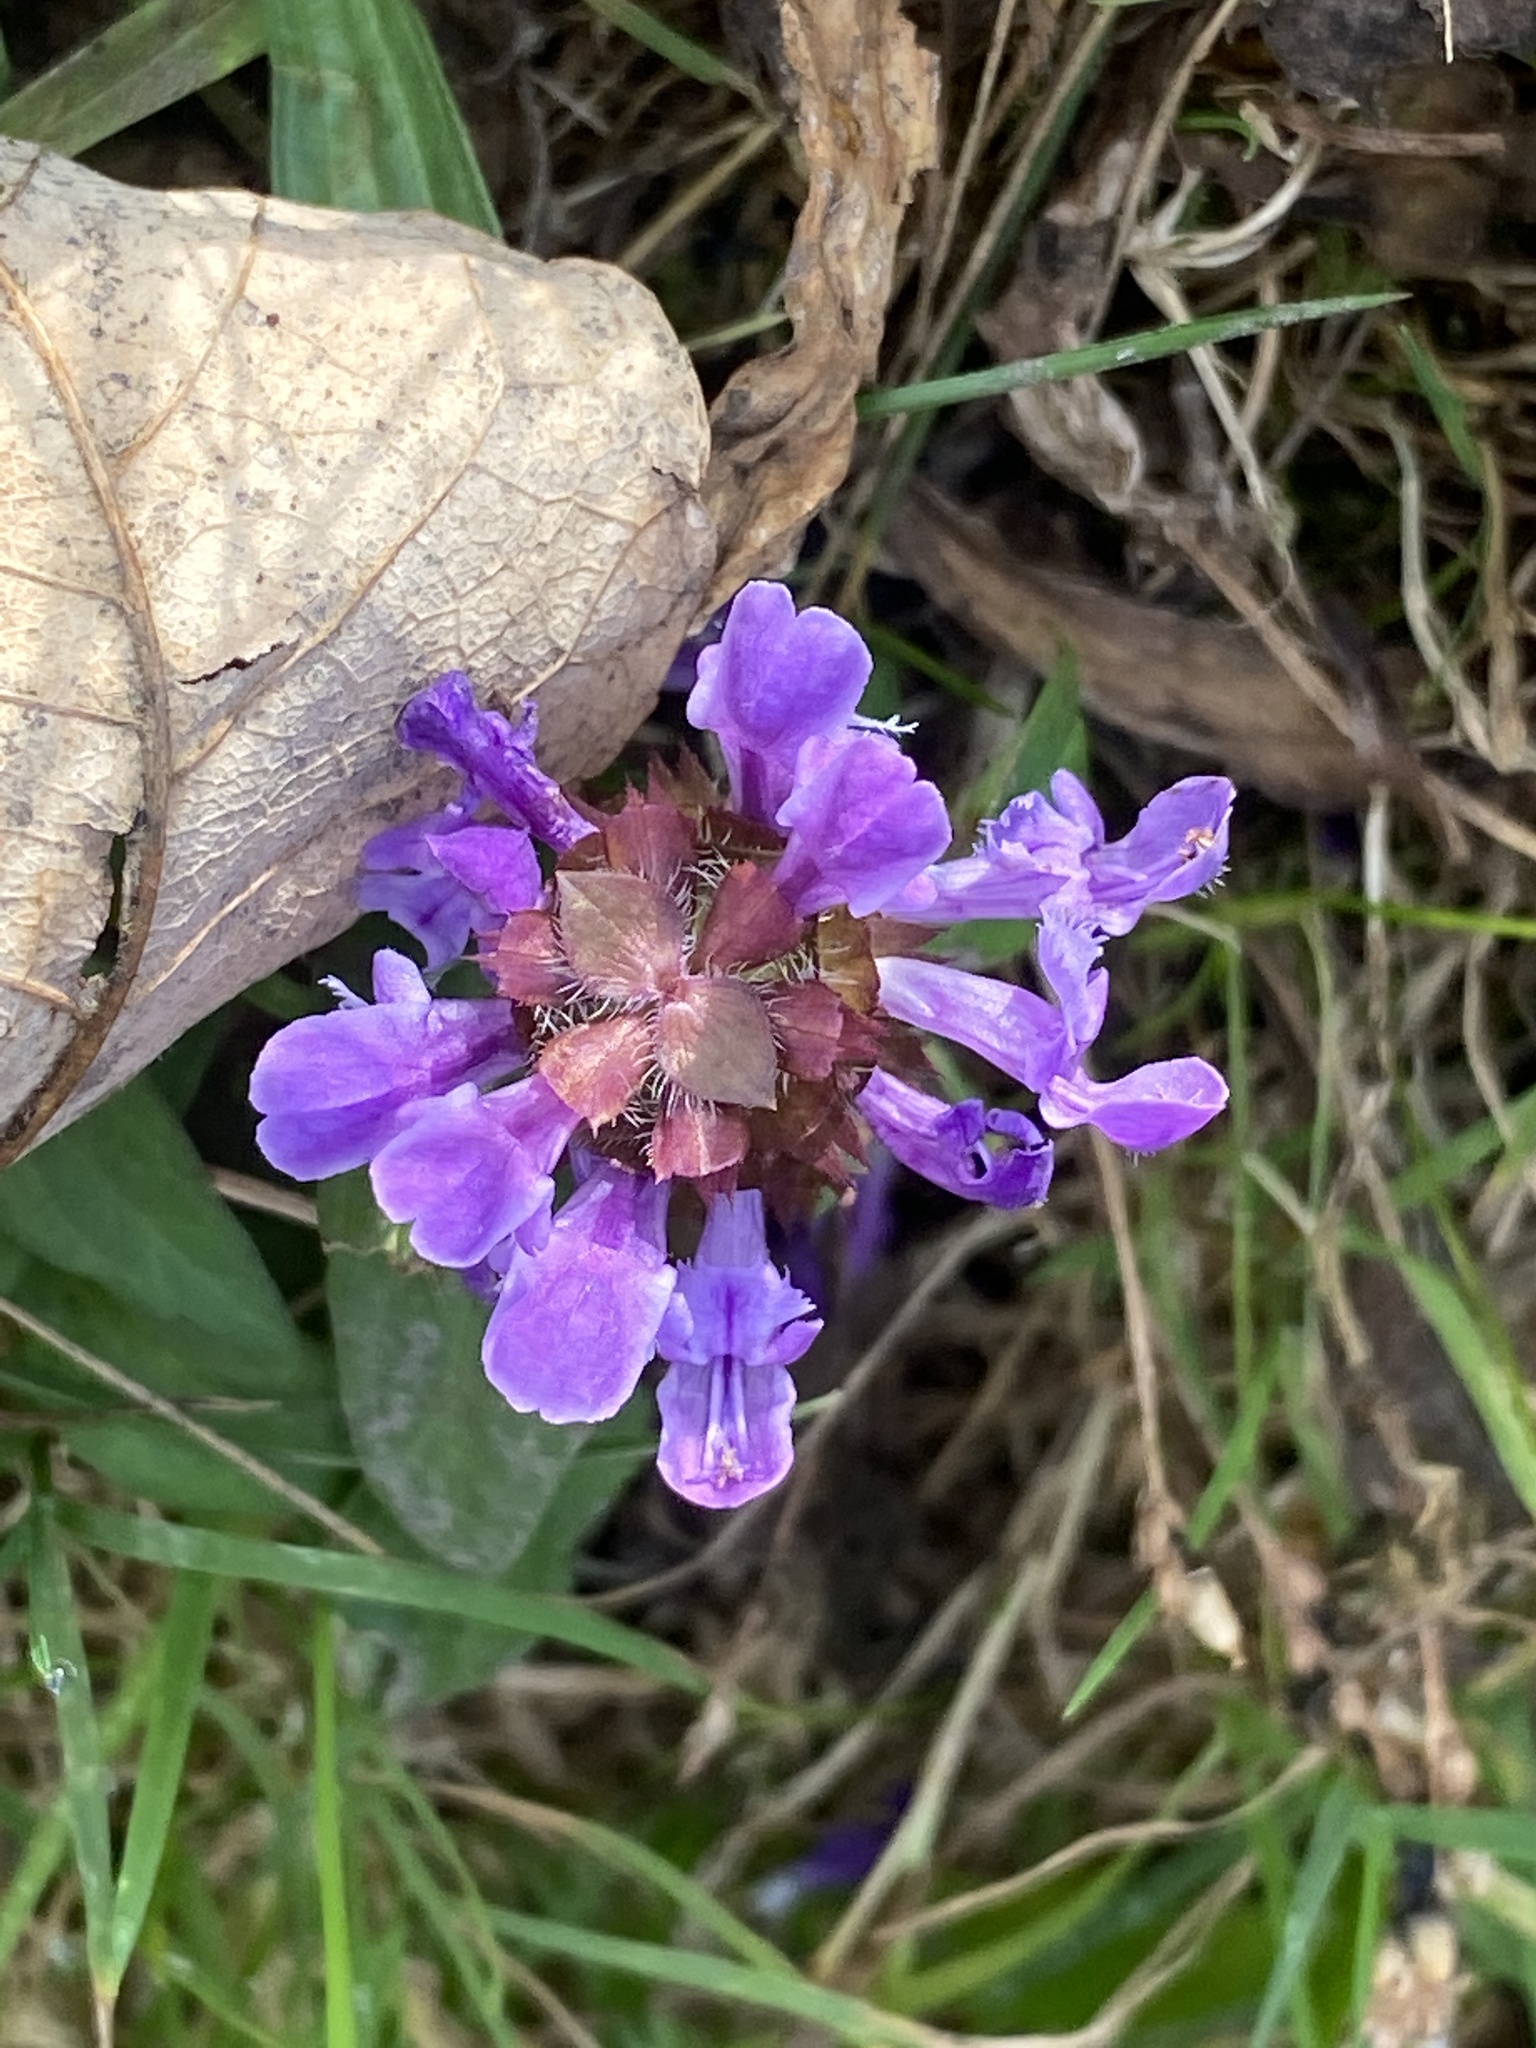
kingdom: Plantae
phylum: Tracheophyta
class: Magnoliopsida
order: Lamiales
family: Lamiaceae
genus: Prunella
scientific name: Prunella vulgaris
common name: Heal-all
